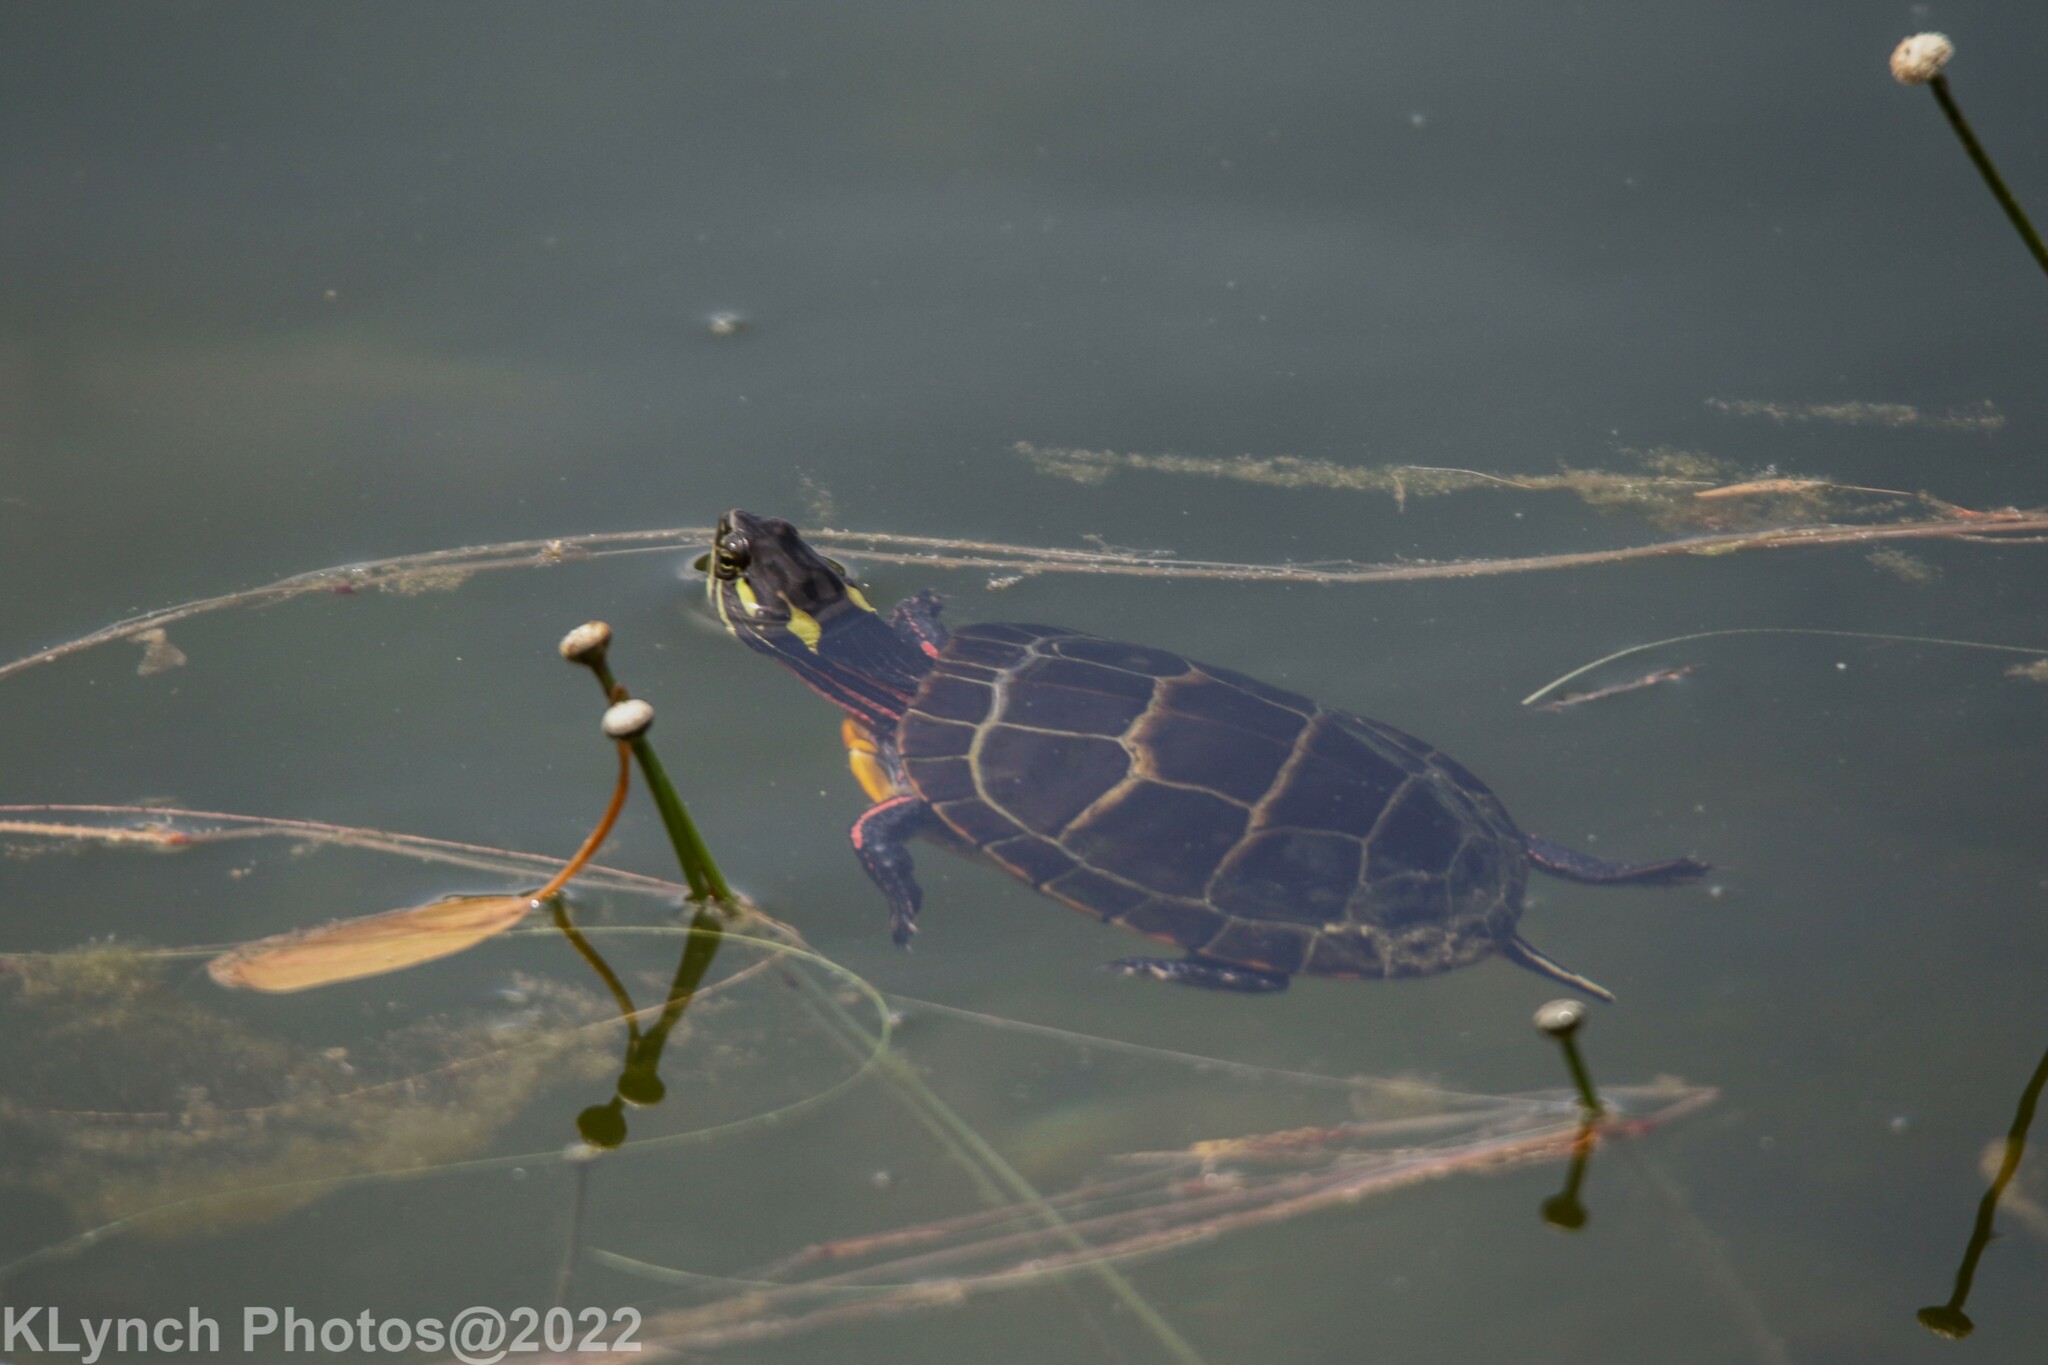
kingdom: Animalia
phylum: Chordata
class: Testudines
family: Emydidae
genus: Chrysemys
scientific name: Chrysemys picta
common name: Painted turtle
